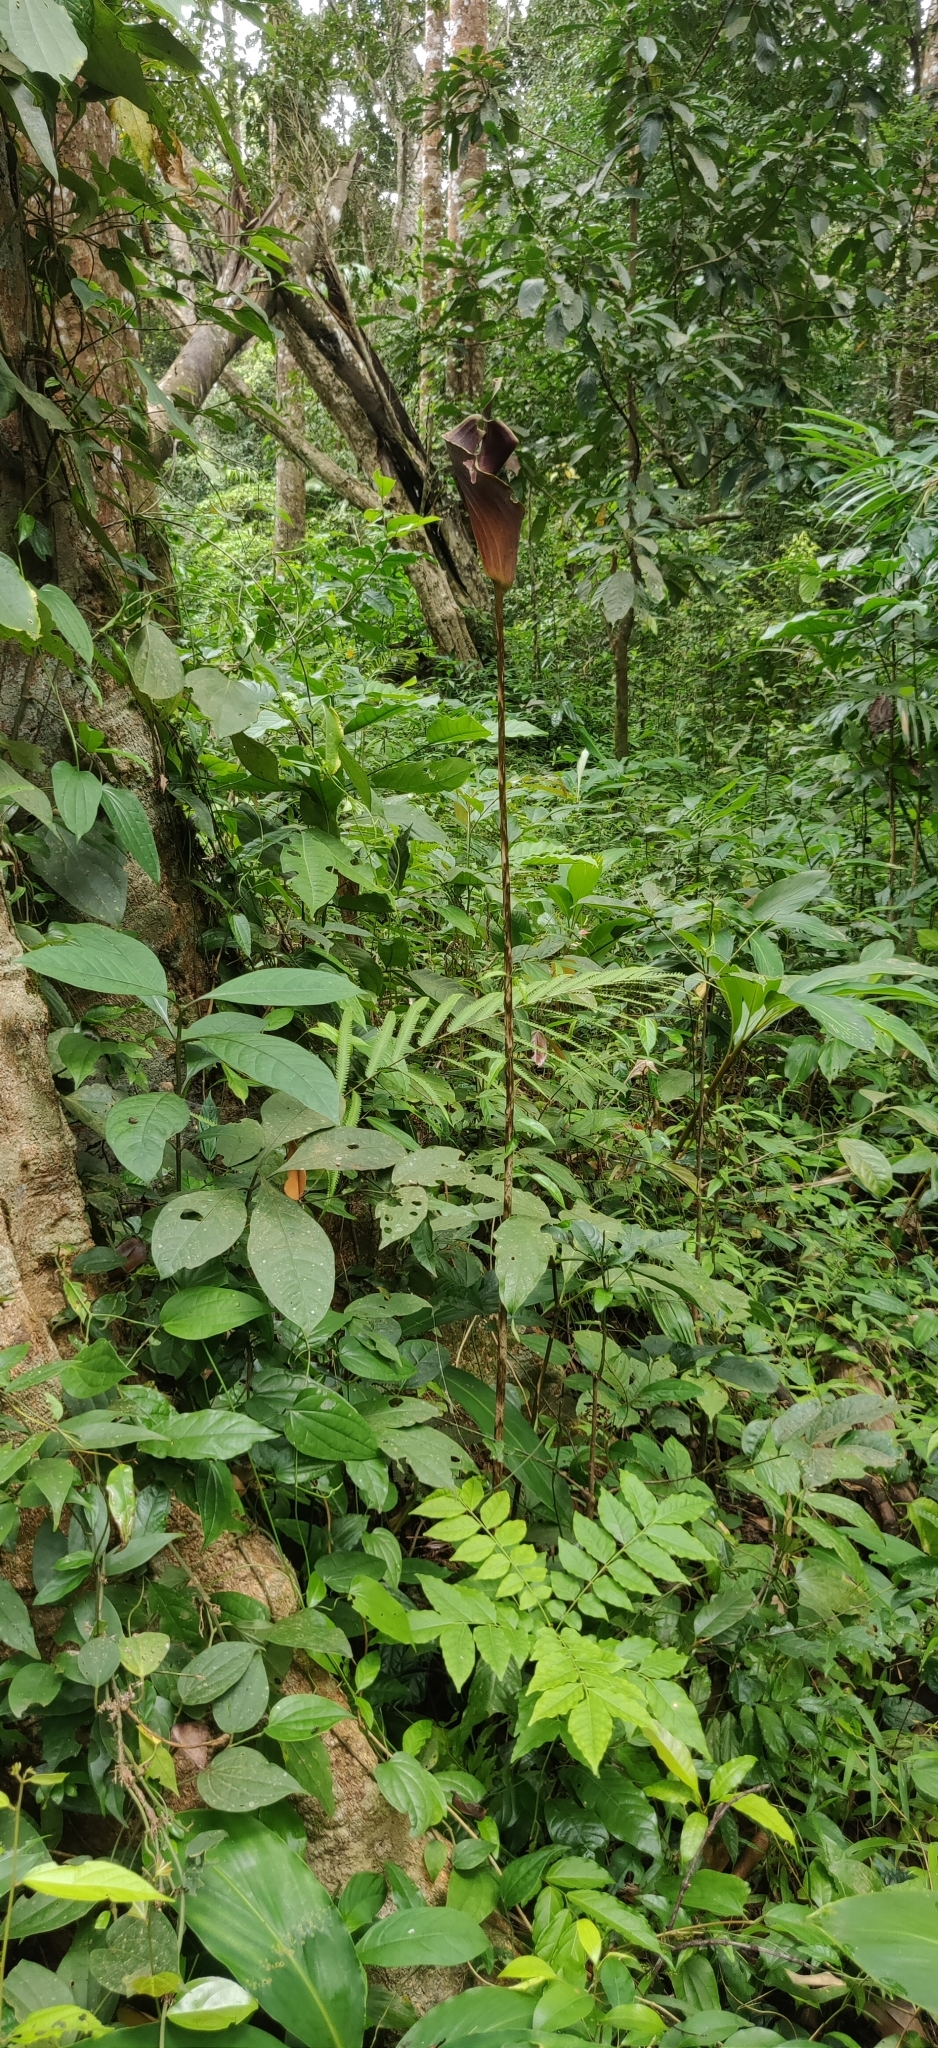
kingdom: Plantae
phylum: Tracheophyta
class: Liliopsida
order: Alismatales
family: Araceae
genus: Anaphyllum
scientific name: Anaphyllum wightii
